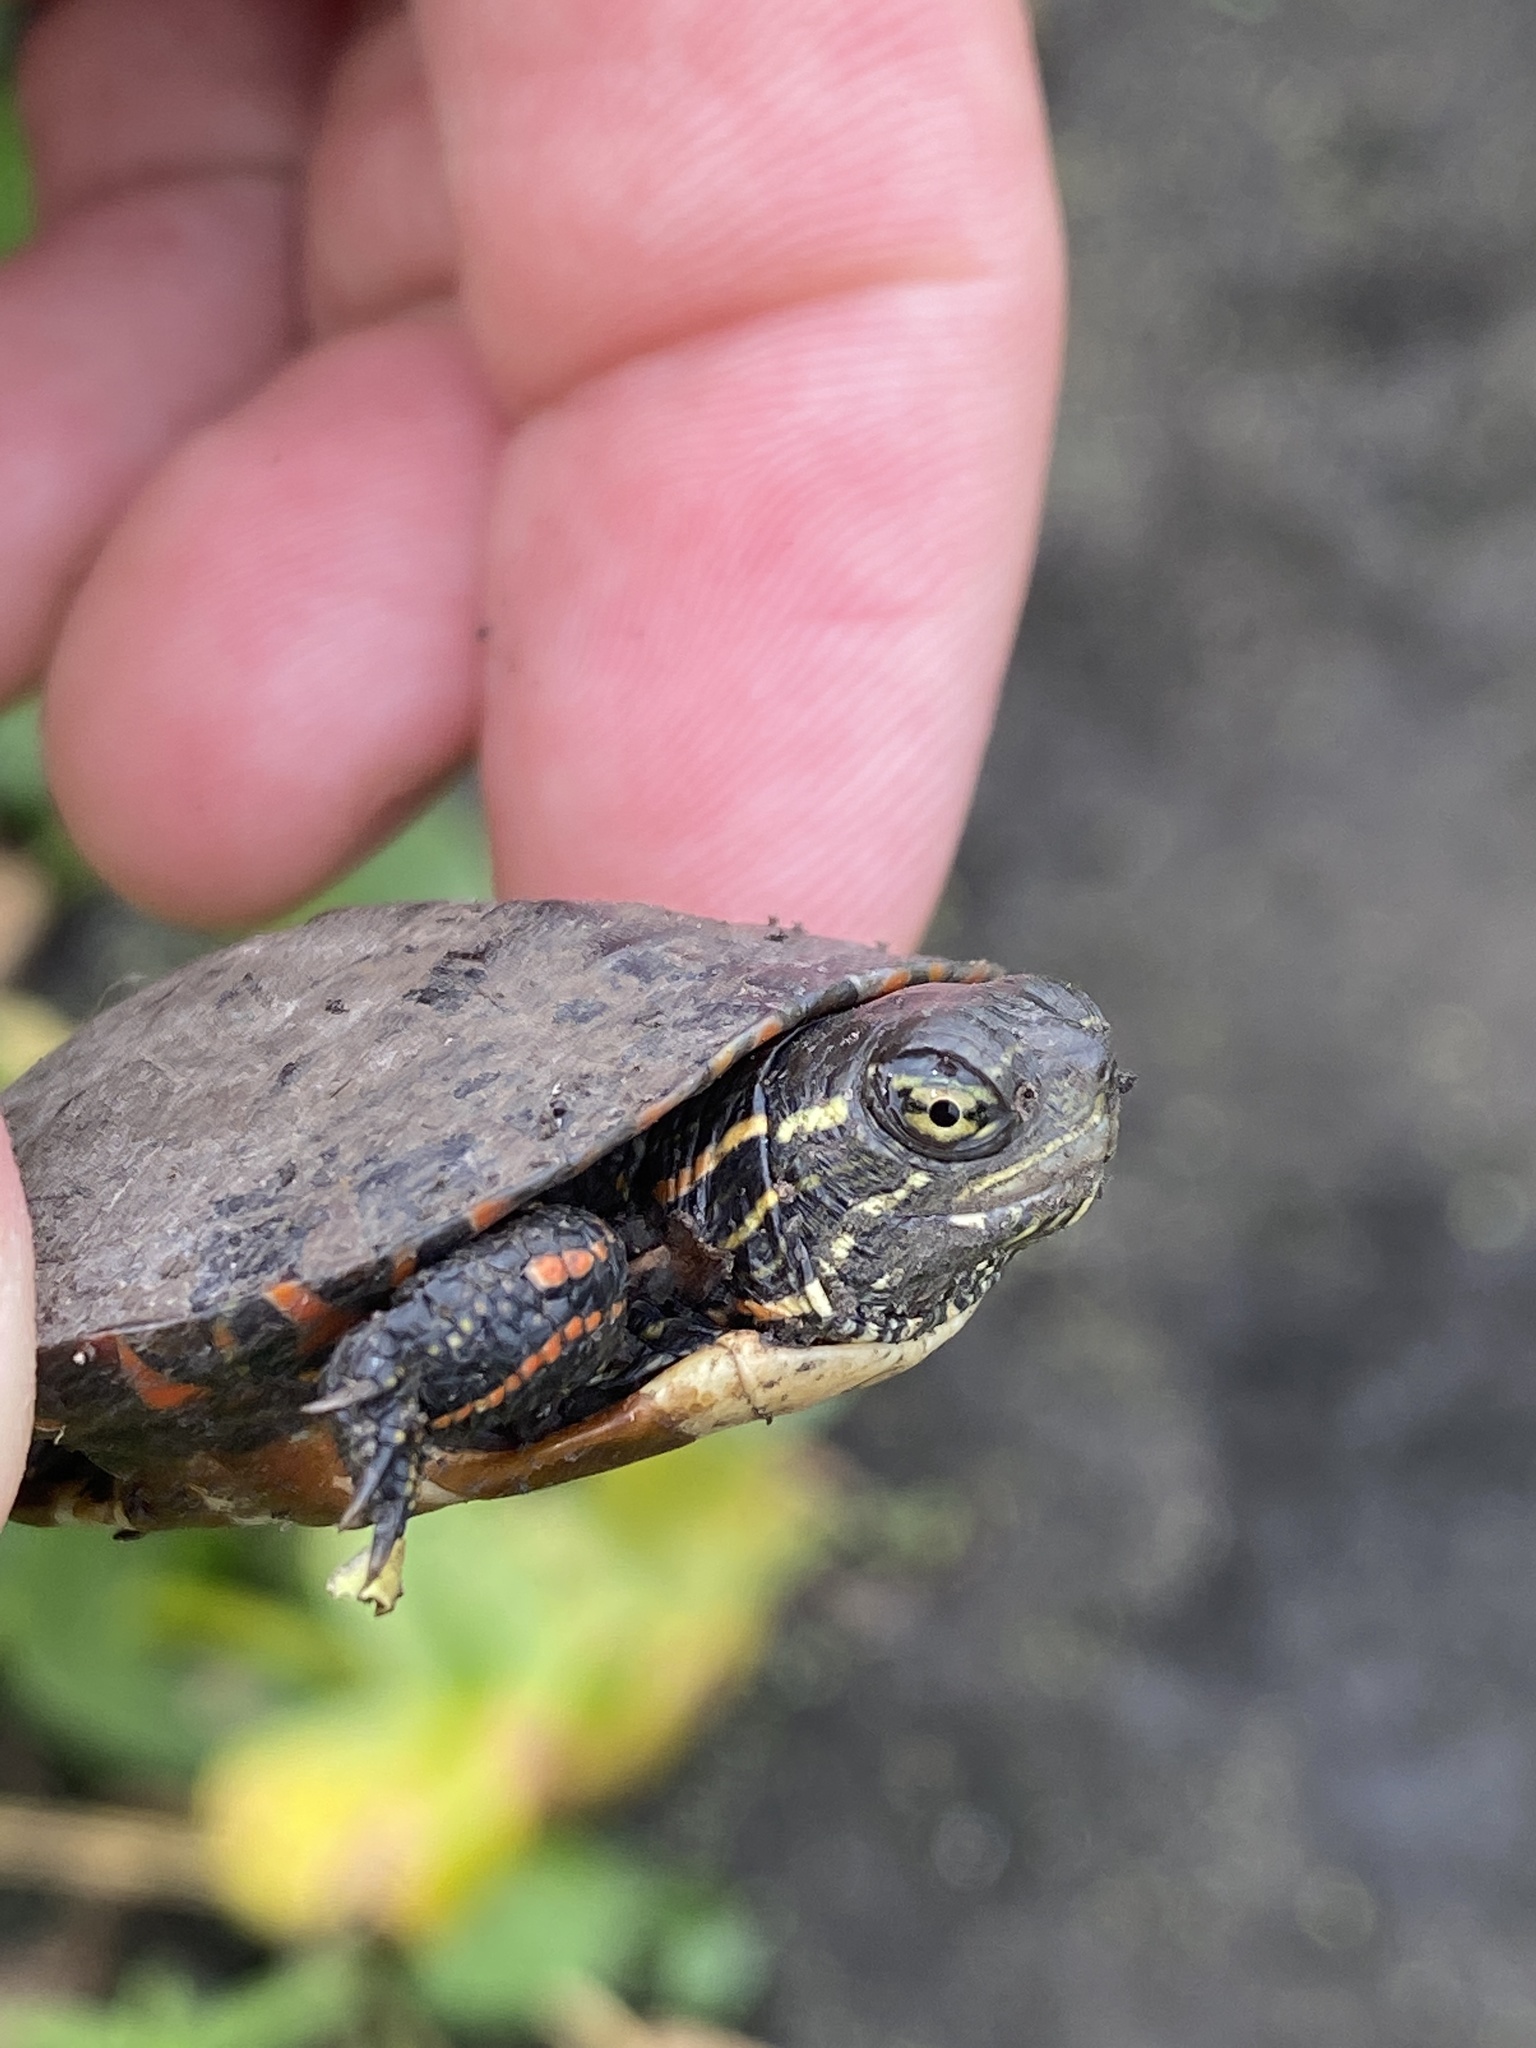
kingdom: Animalia
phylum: Chordata
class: Testudines
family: Emydidae
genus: Chrysemys
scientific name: Chrysemys picta
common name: Painted turtle
